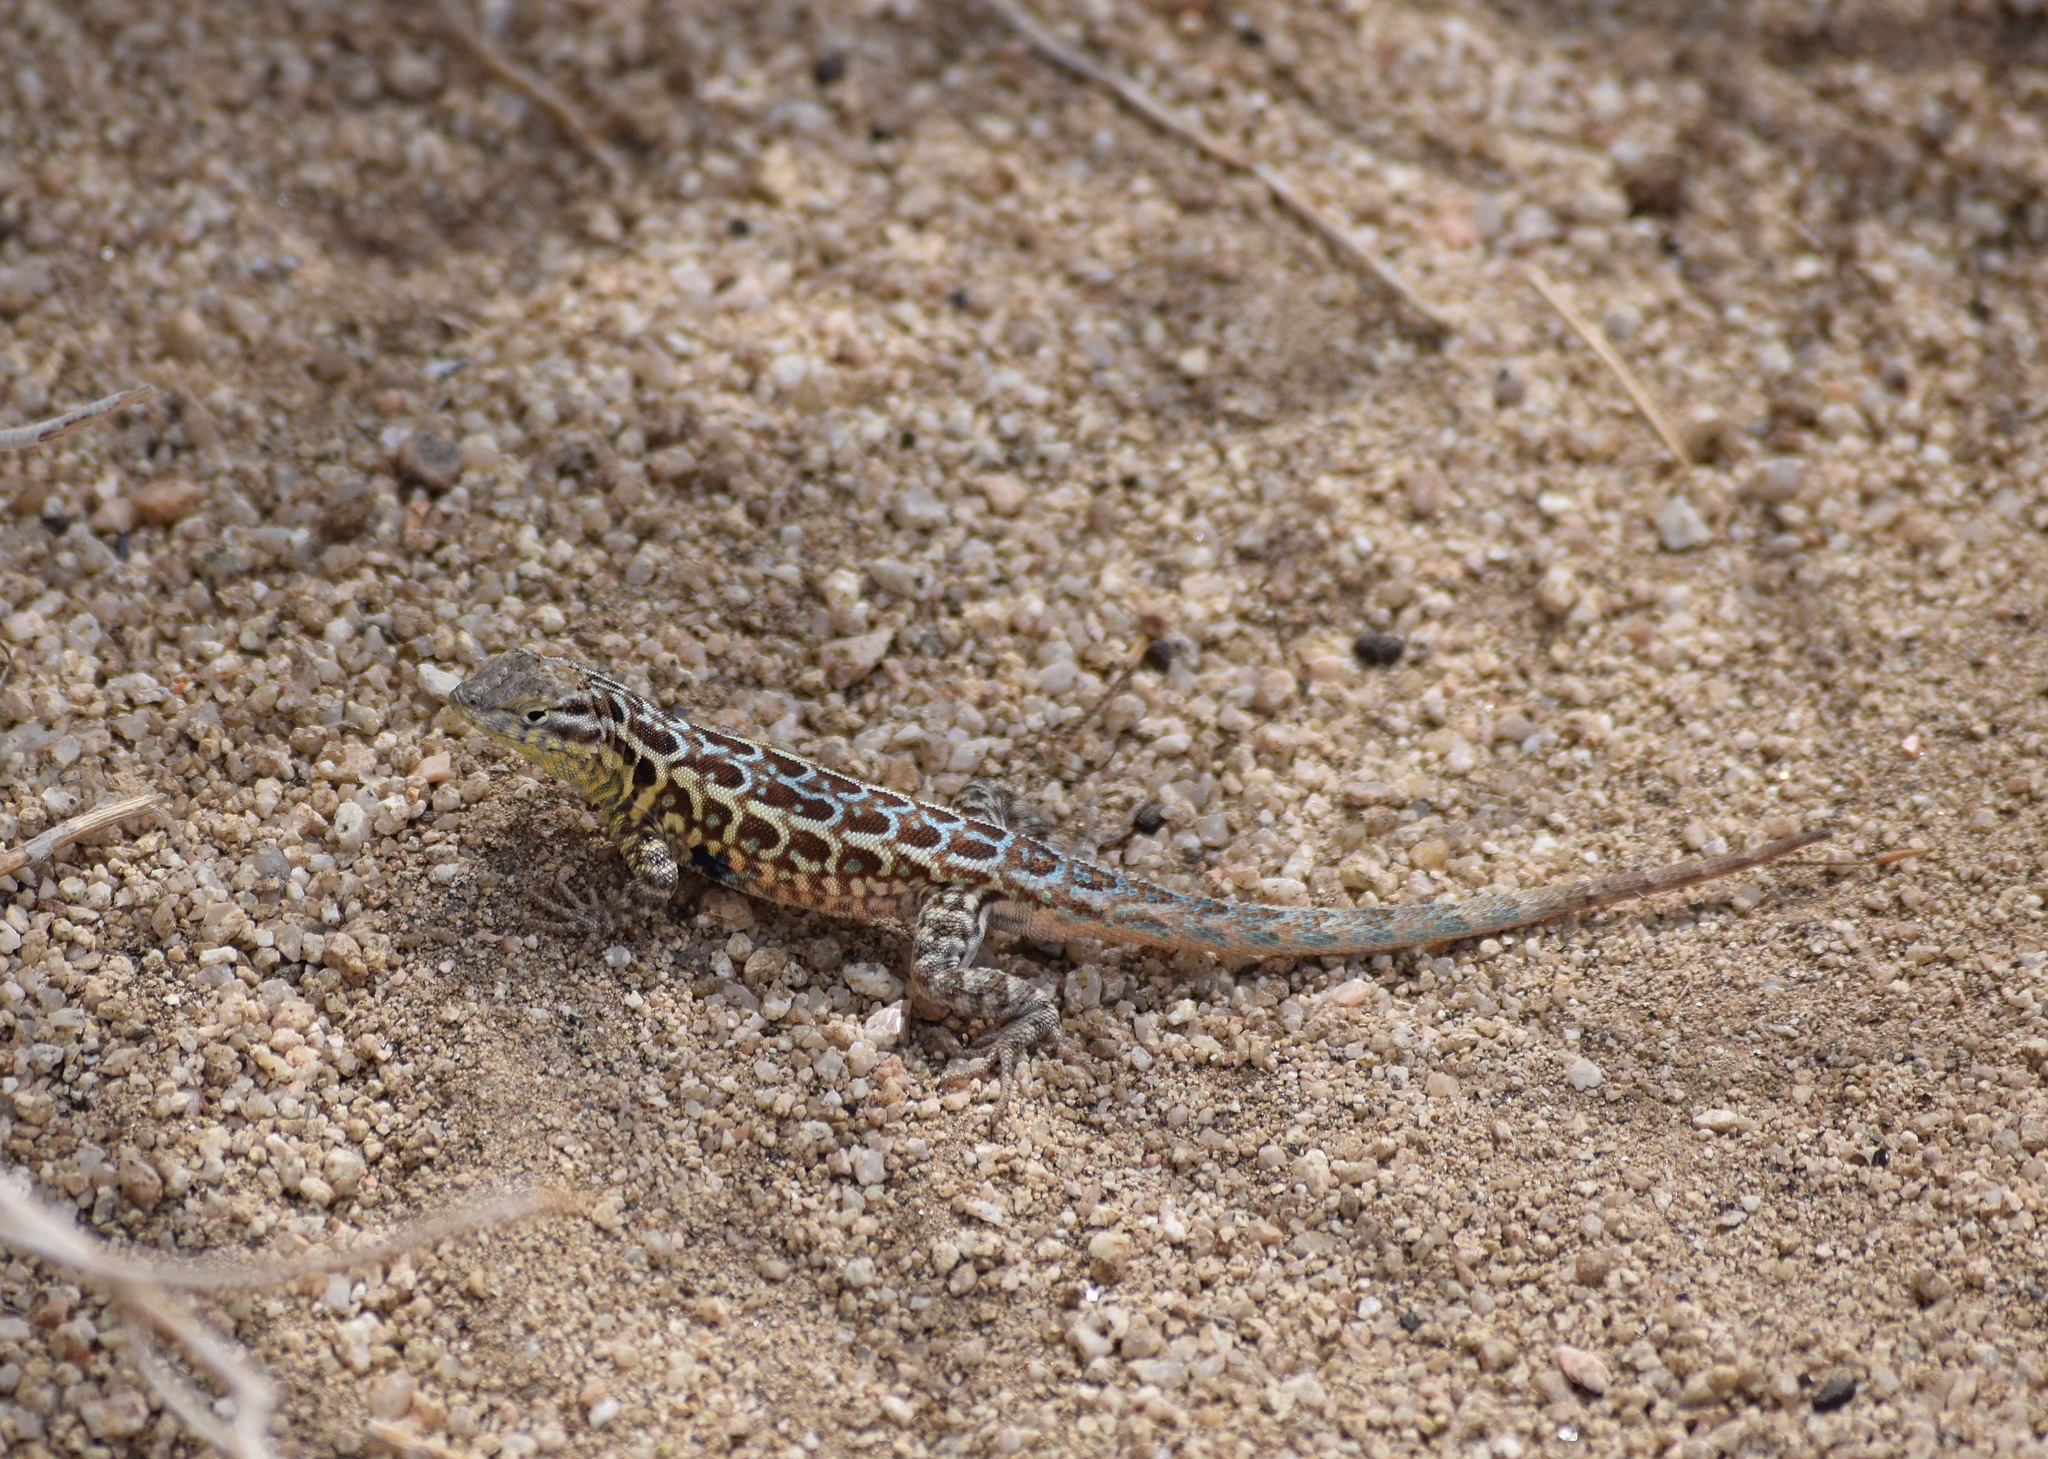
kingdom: Animalia
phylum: Chordata
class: Squamata
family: Phrynosomatidae
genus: Uta
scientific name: Uta stansburiana
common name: Side-blotched lizard
